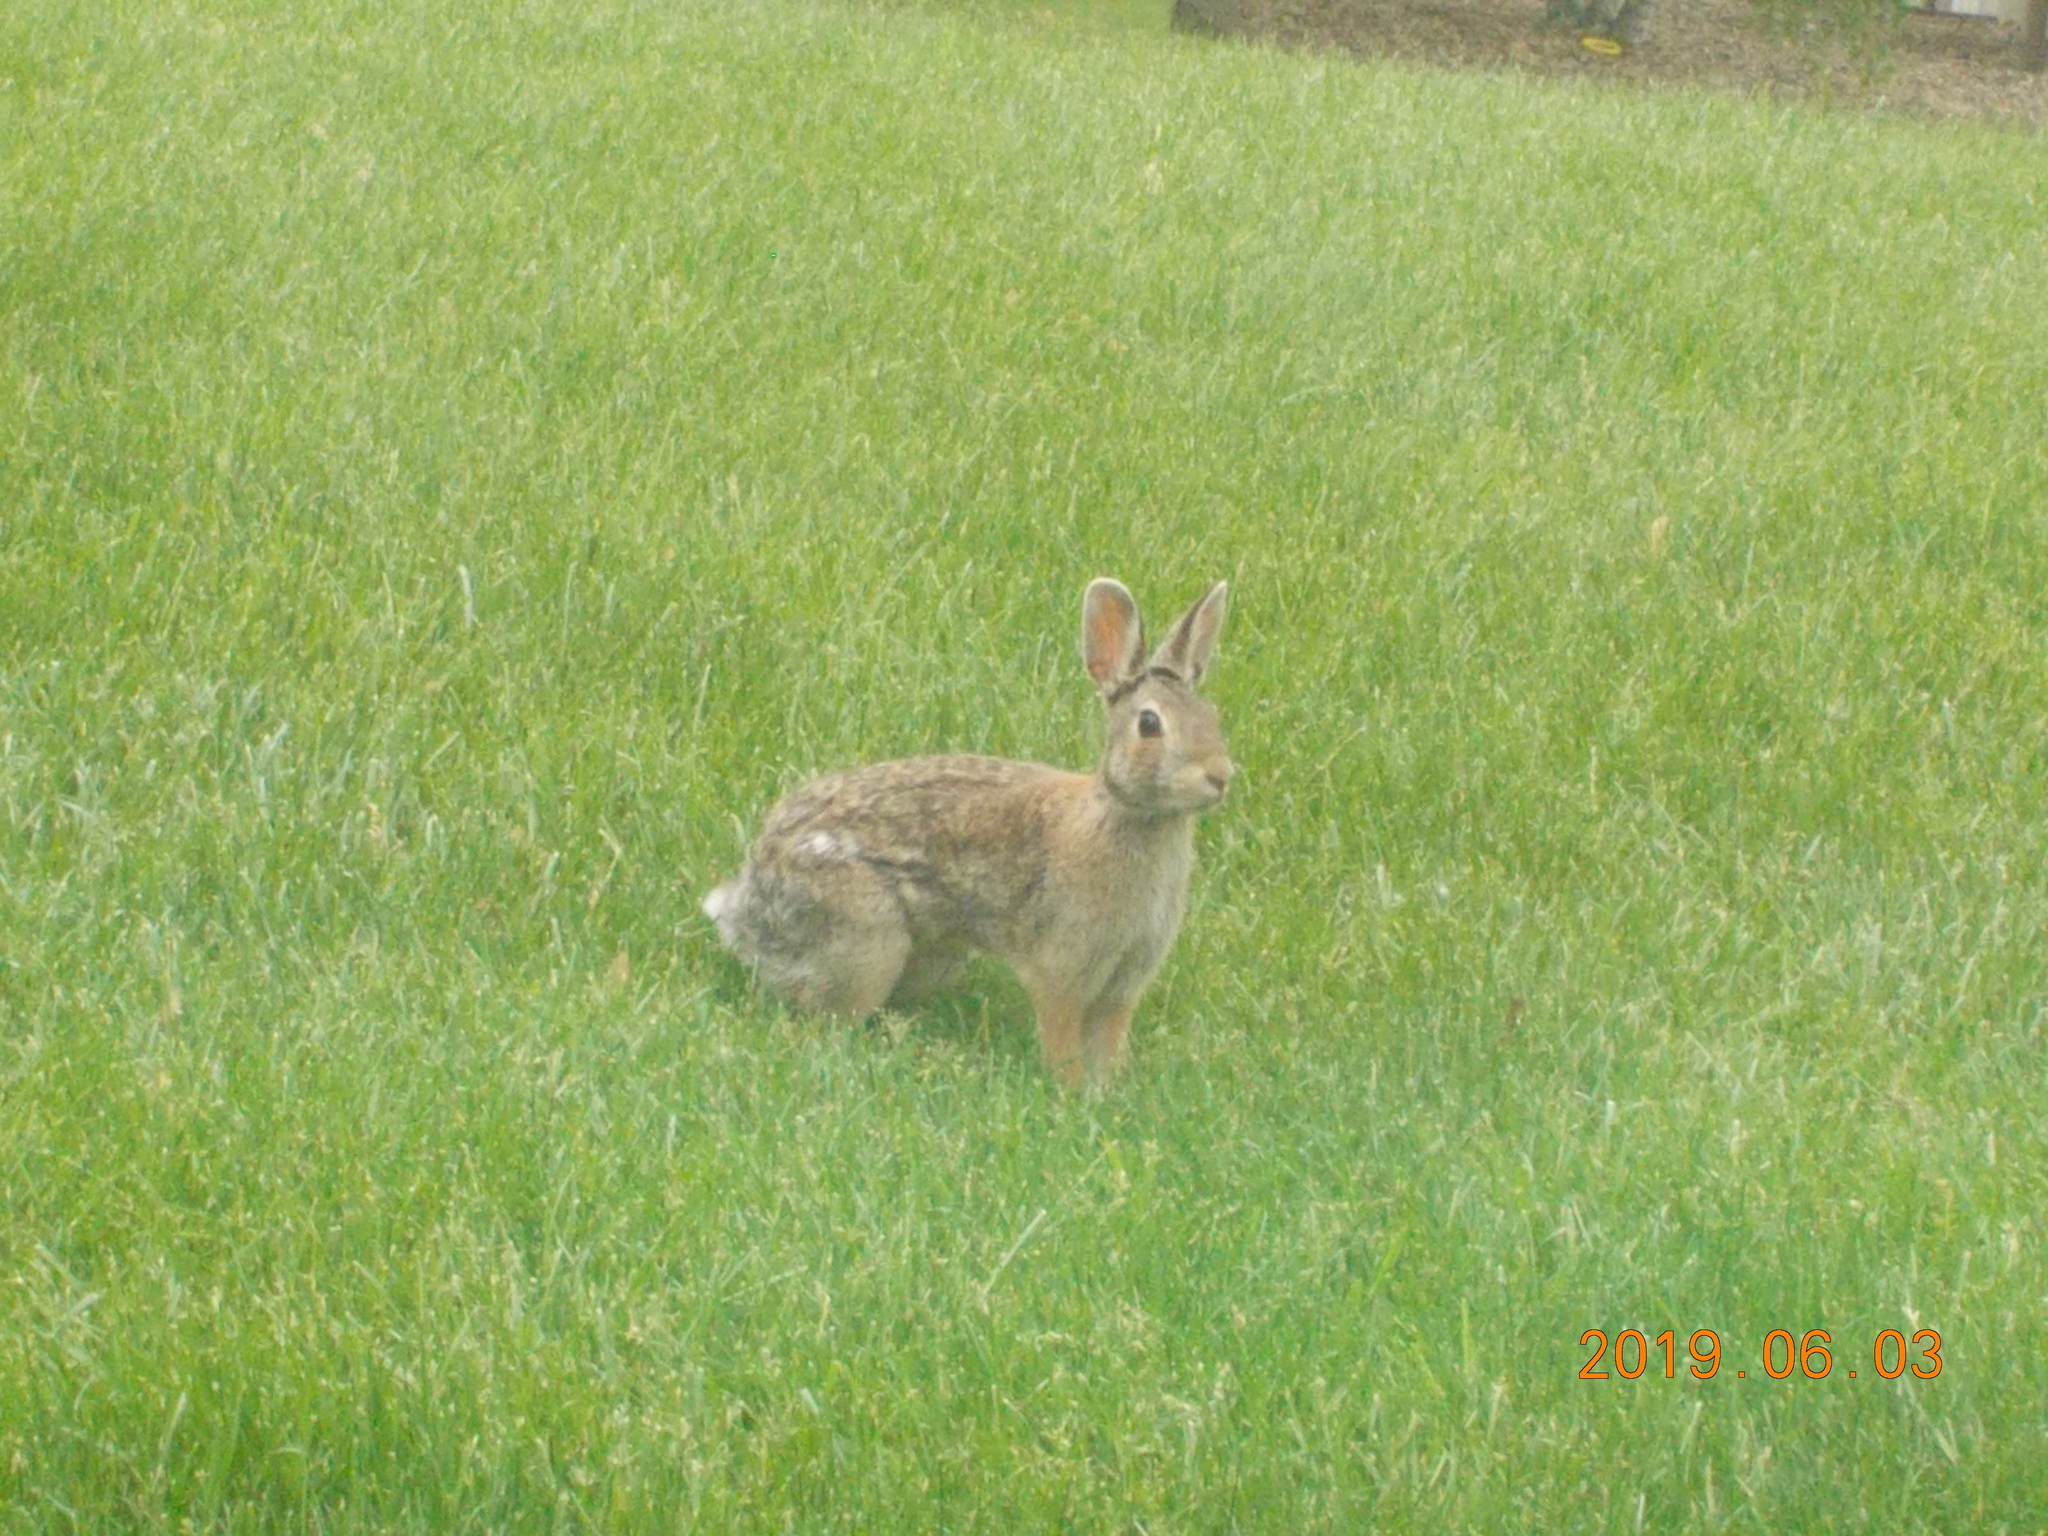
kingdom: Animalia
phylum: Chordata
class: Mammalia
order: Lagomorpha
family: Leporidae
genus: Sylvilagus
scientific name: Sylvilagus floridanus
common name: Eastern cottontail
